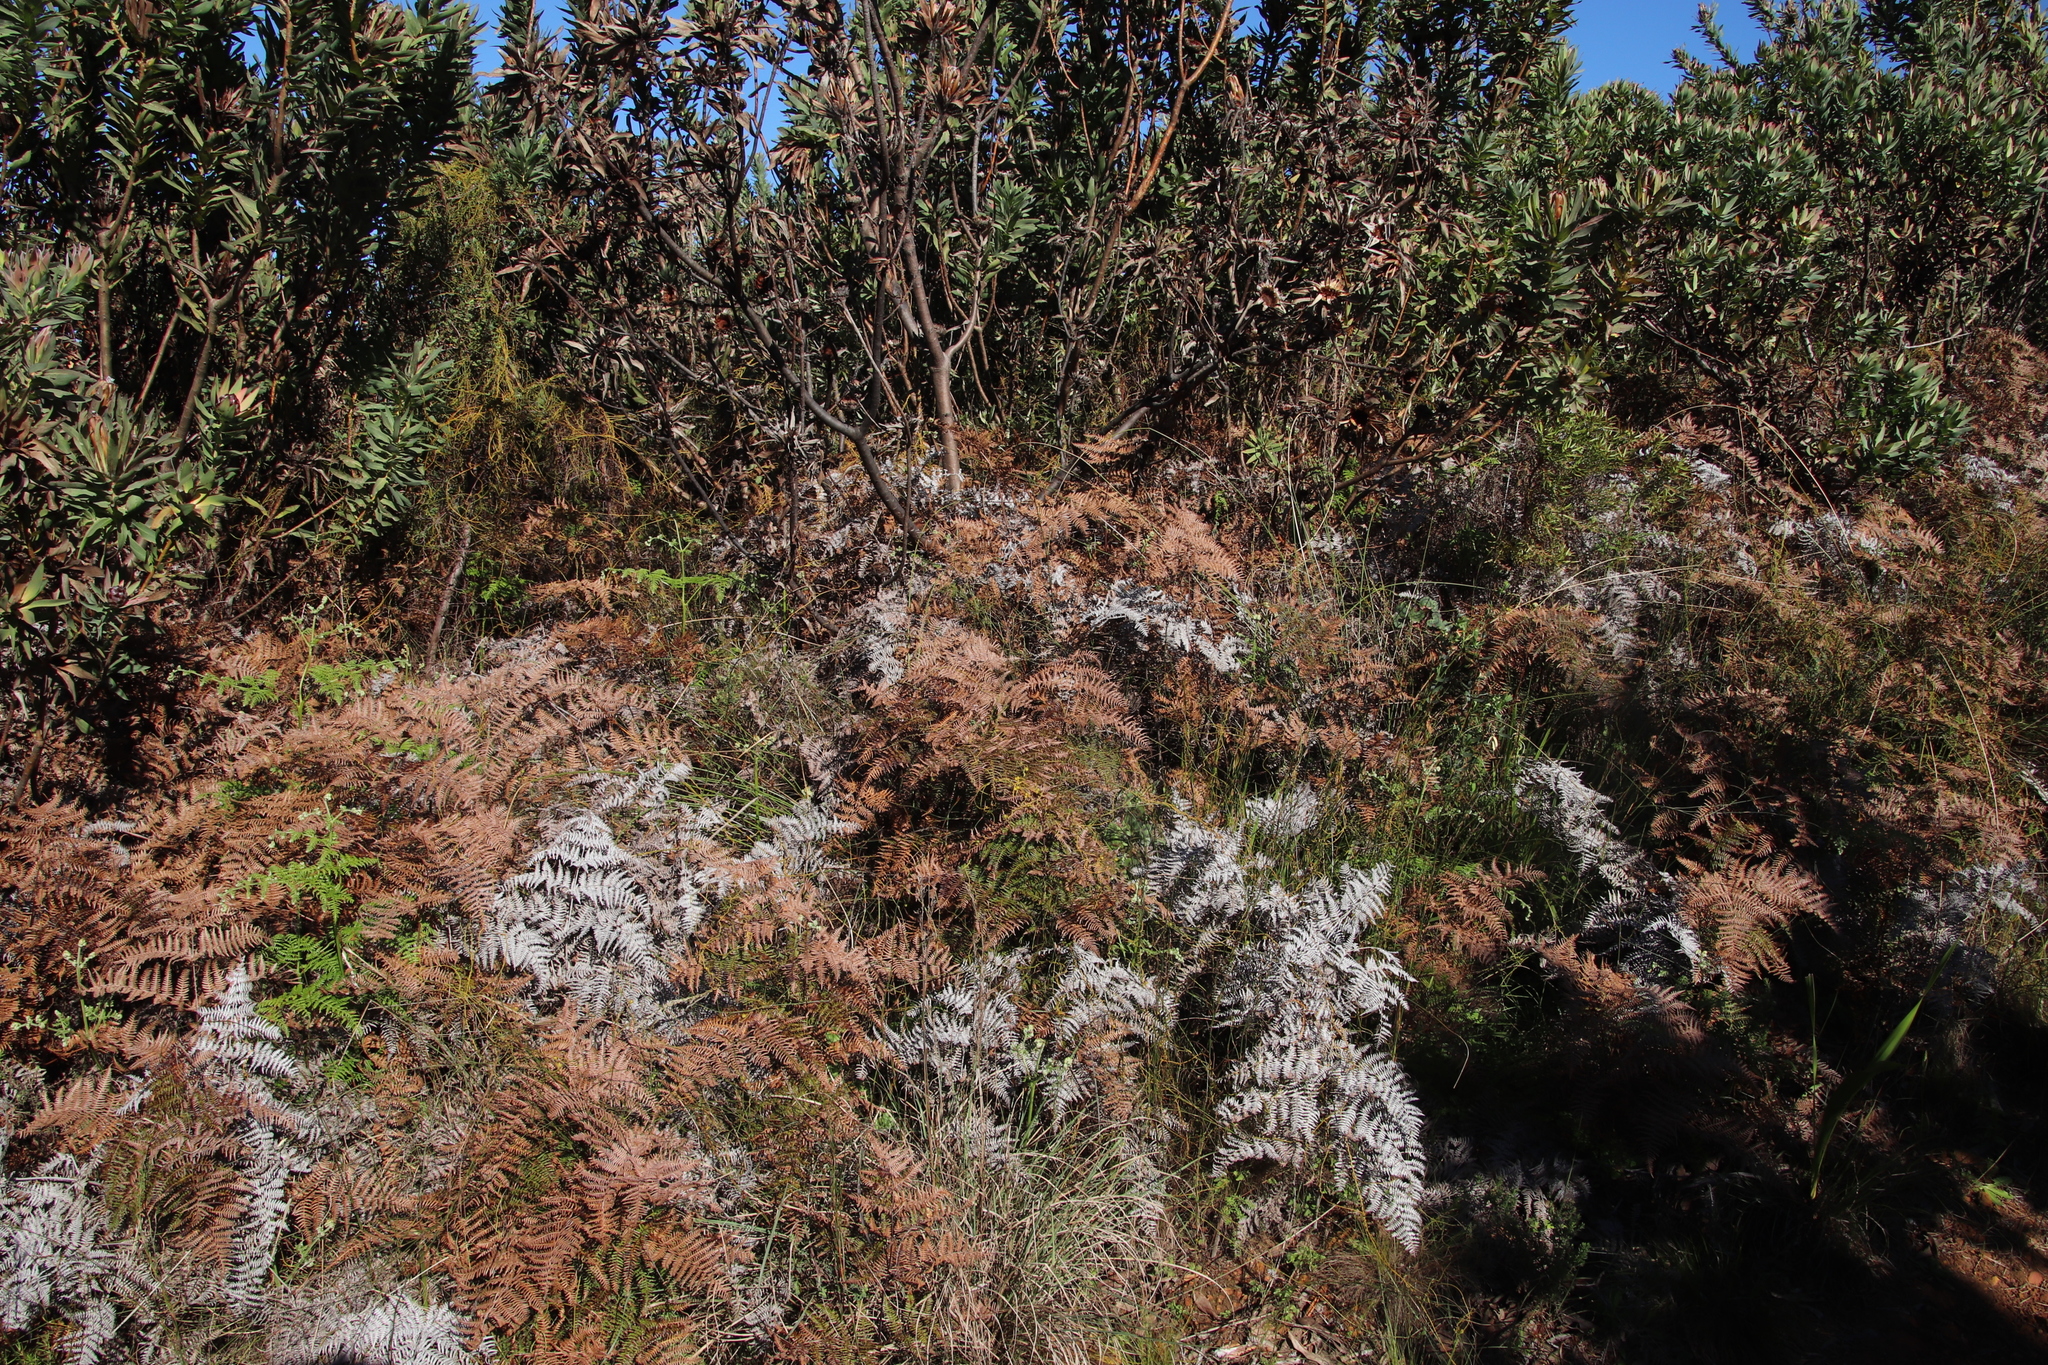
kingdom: Plantae
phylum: Tracheophyta
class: Polypodiopsida
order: Polypodiales
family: Dennstaedtiaceae
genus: Pteridium
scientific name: Pteridium aquilinum
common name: Bracken
